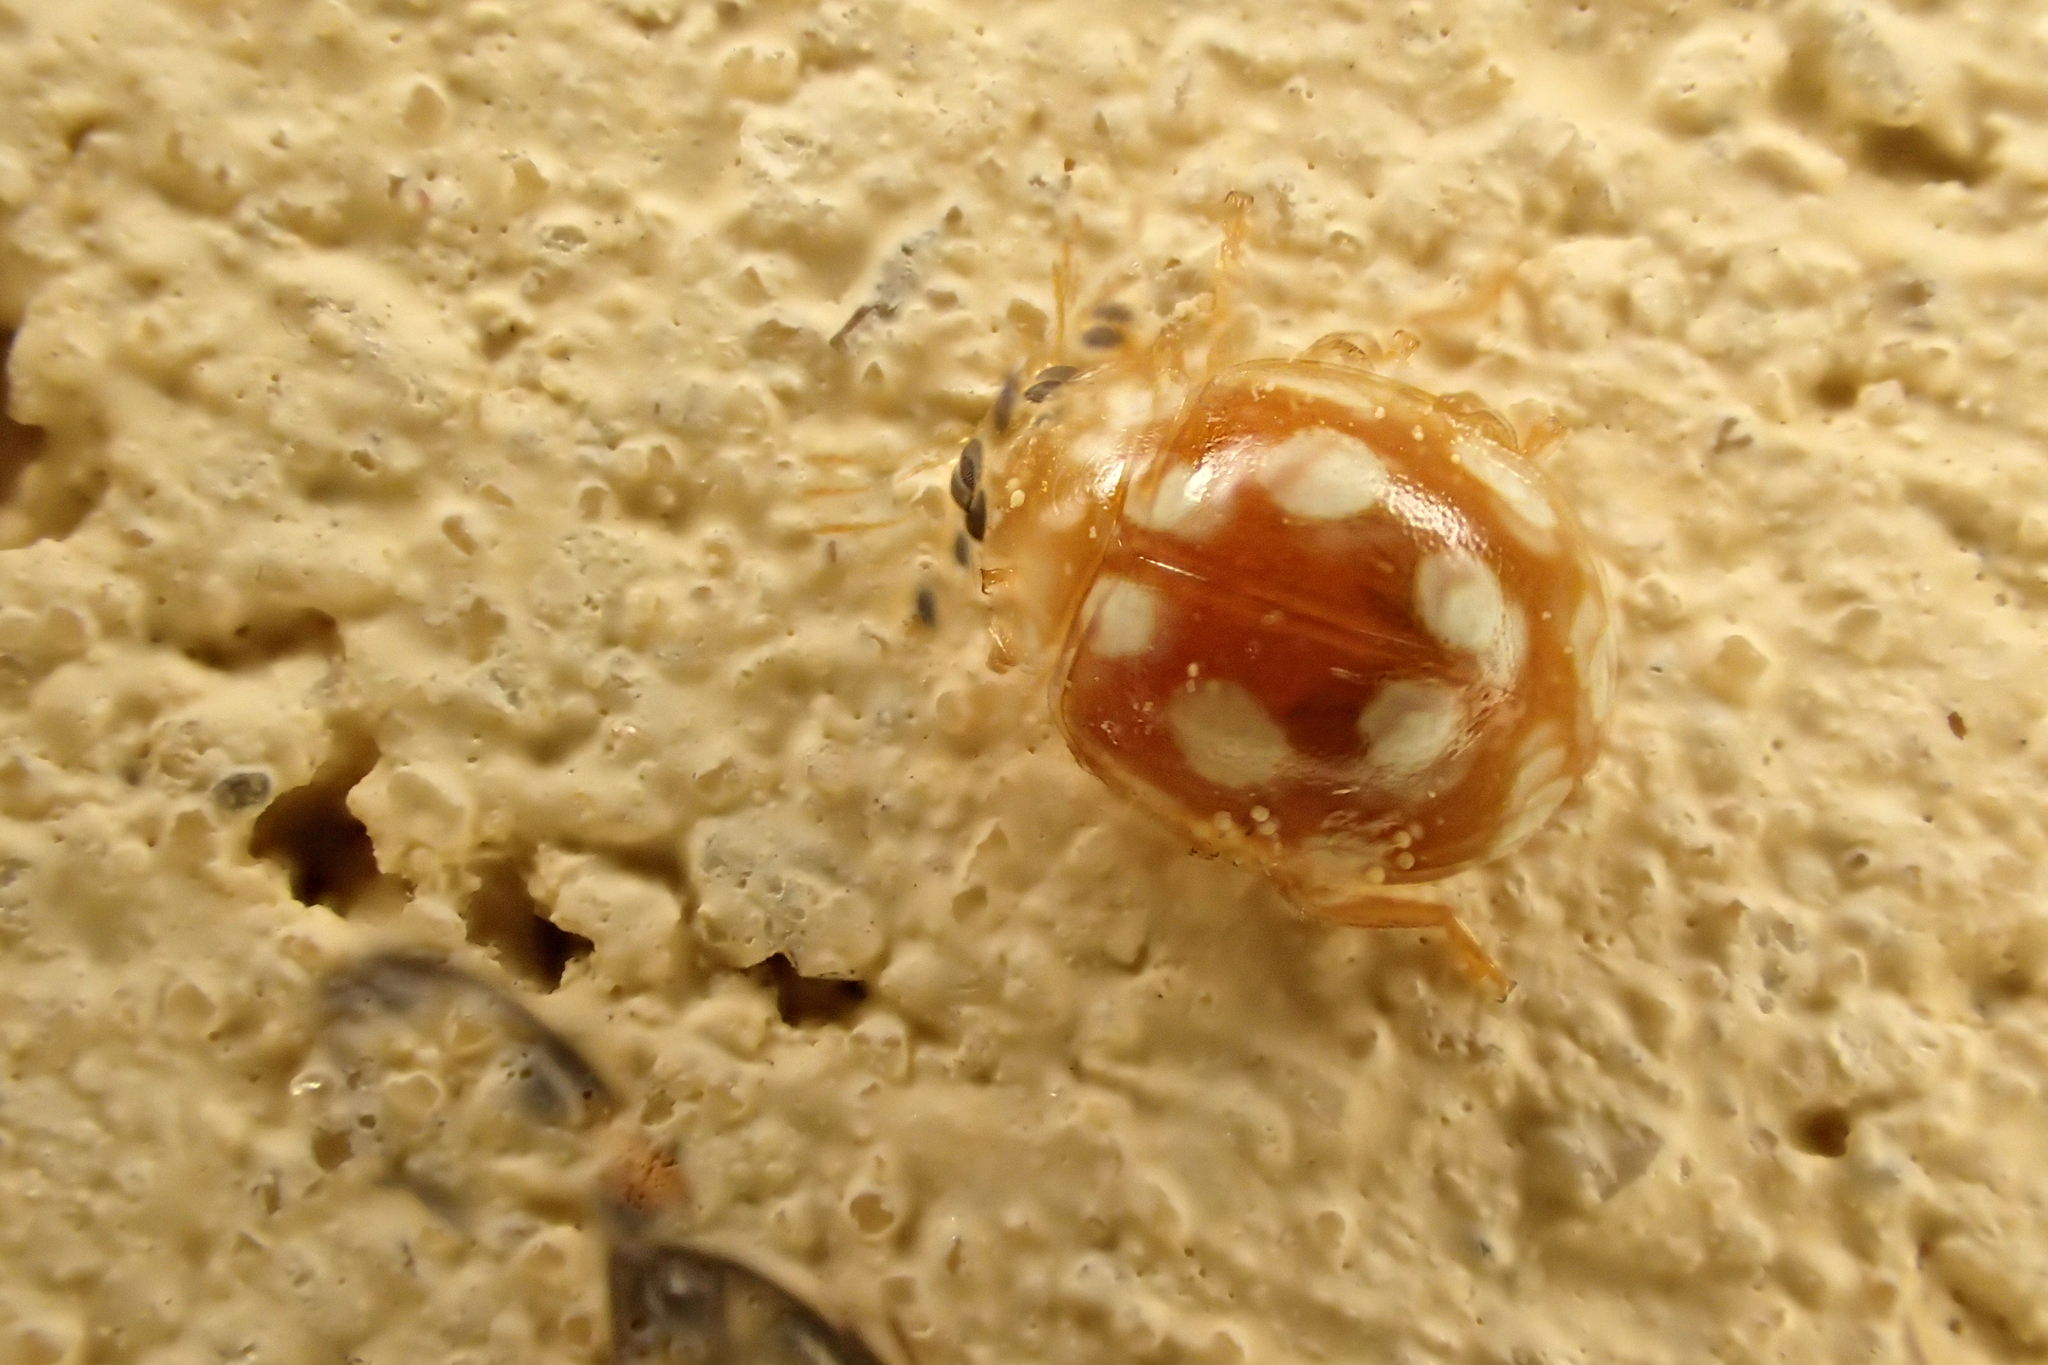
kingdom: Animalia
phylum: Arthropoda
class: Insecta
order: Coleoptera
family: Coccinellidae
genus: Vibidia
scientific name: Vibidia duodecimguttata
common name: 12-spot ladybird
